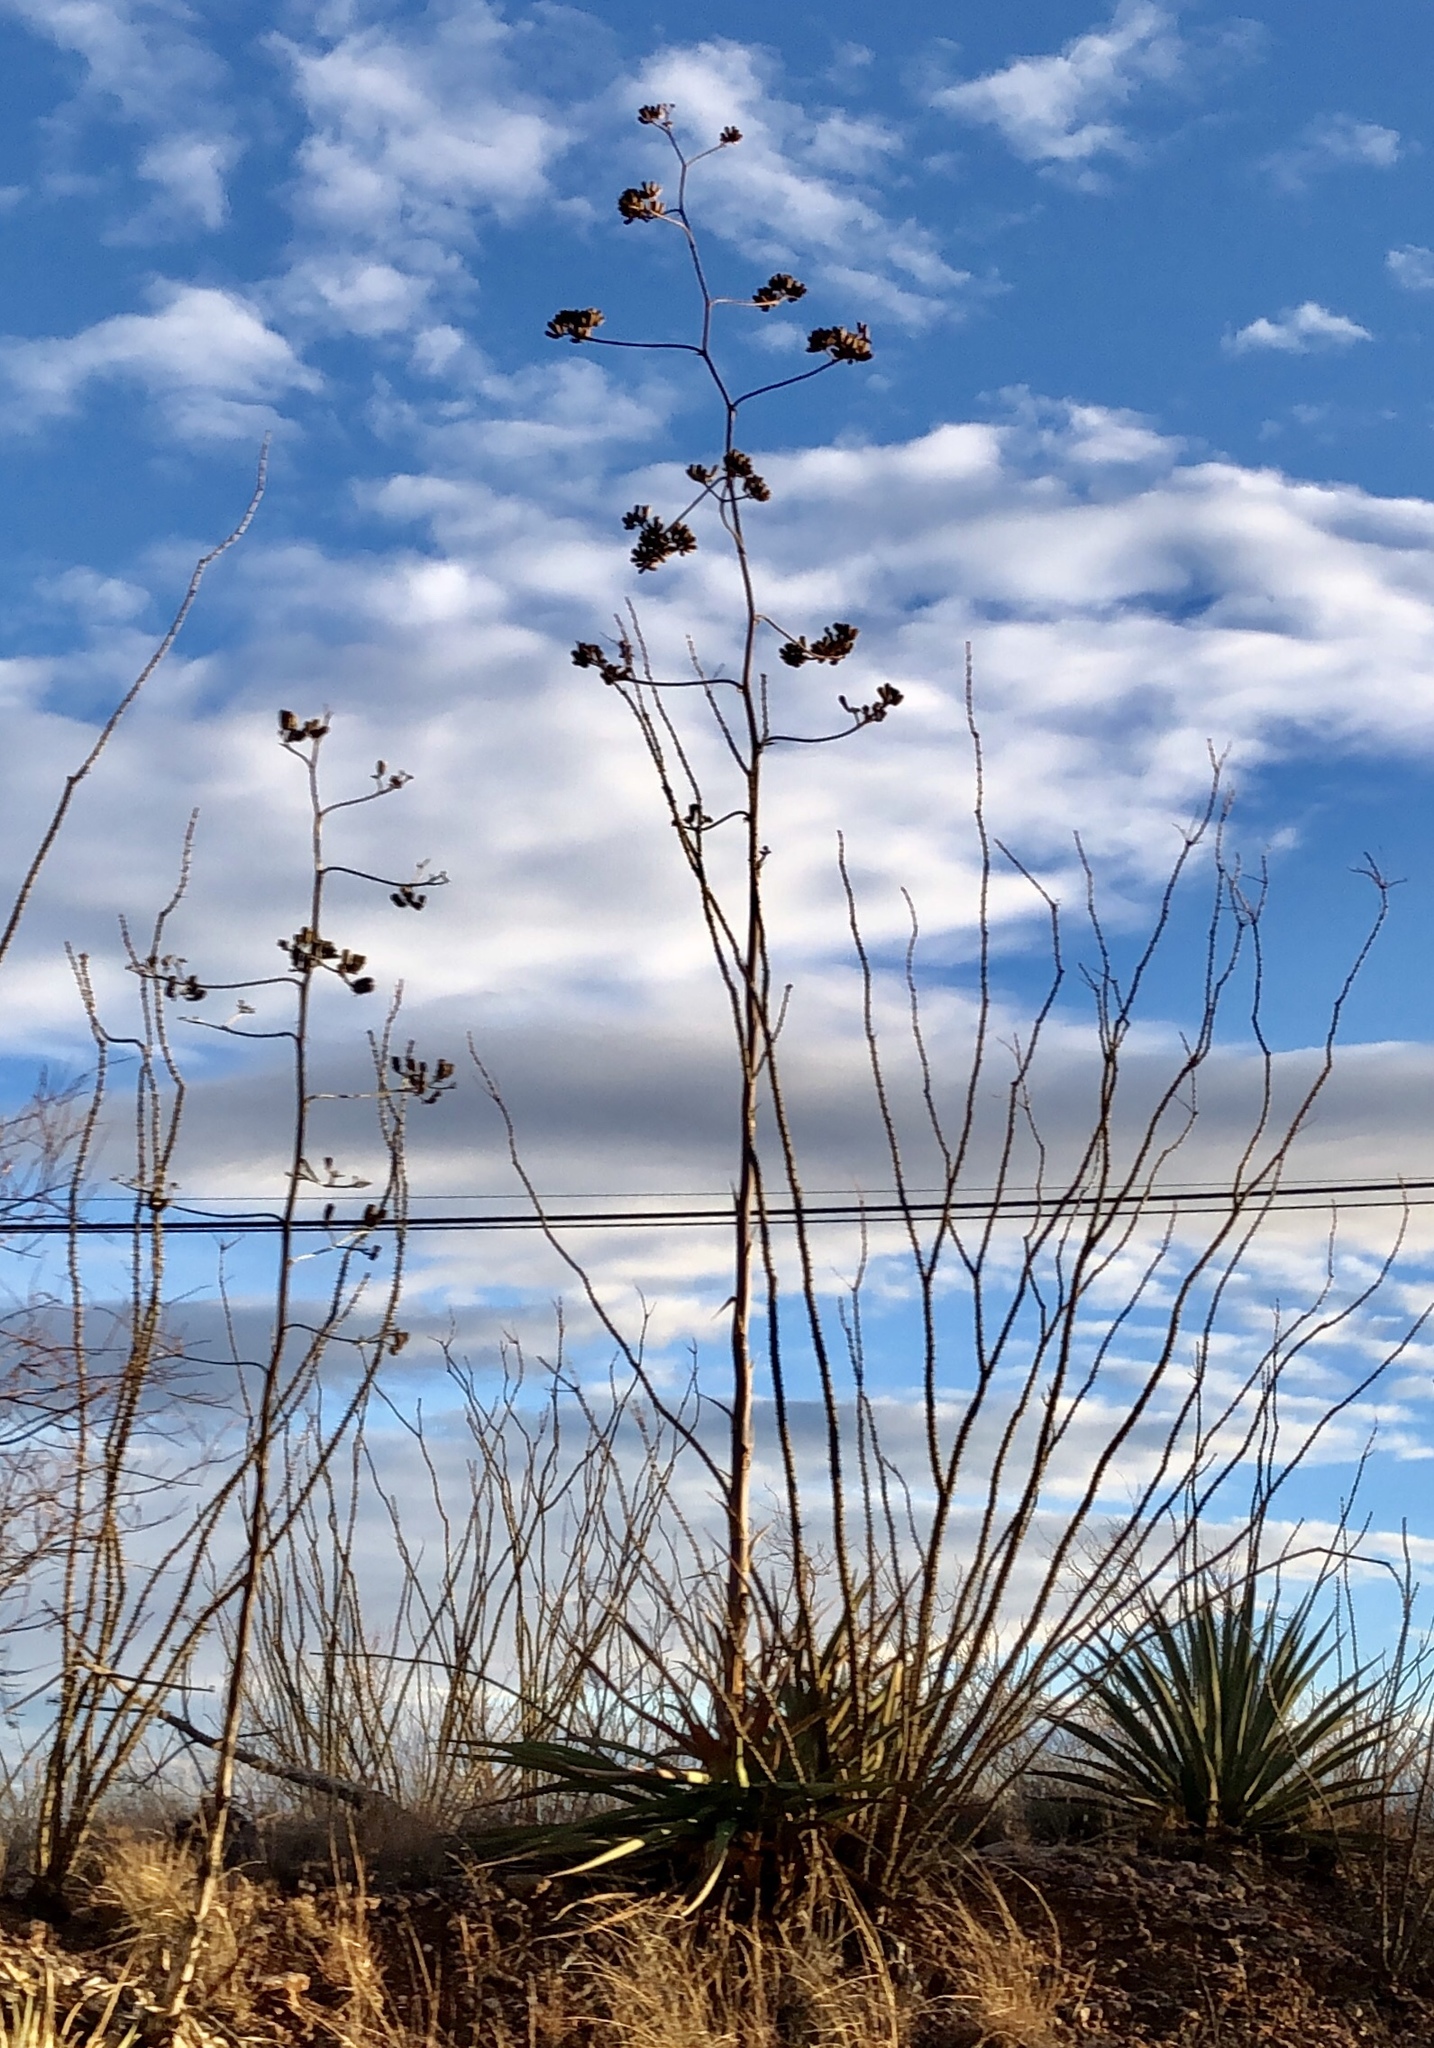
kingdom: Plantae
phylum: Tracheophyta
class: Liliopsida
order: Asparagales
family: Asparagaceae
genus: Agave
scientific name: Agave palmeri
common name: Palmer agave
